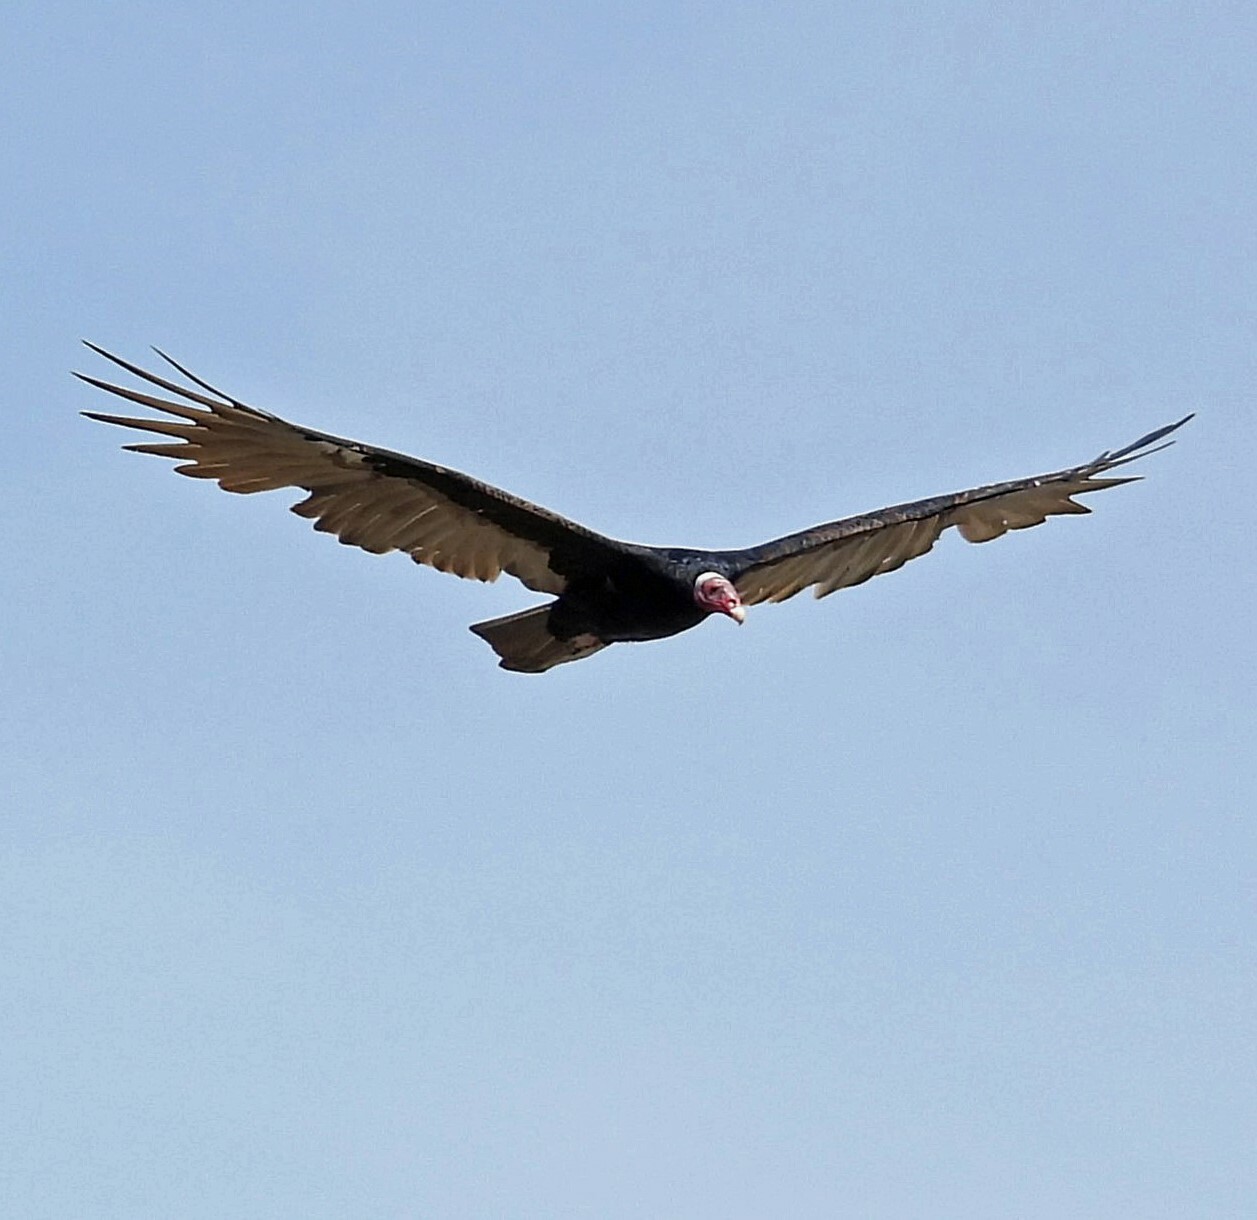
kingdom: Animalia
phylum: Chordata
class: Aves
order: Accipitriformes
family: Cathartidae
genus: Cathartes
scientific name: Cathartes aura
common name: Turkey vulture
